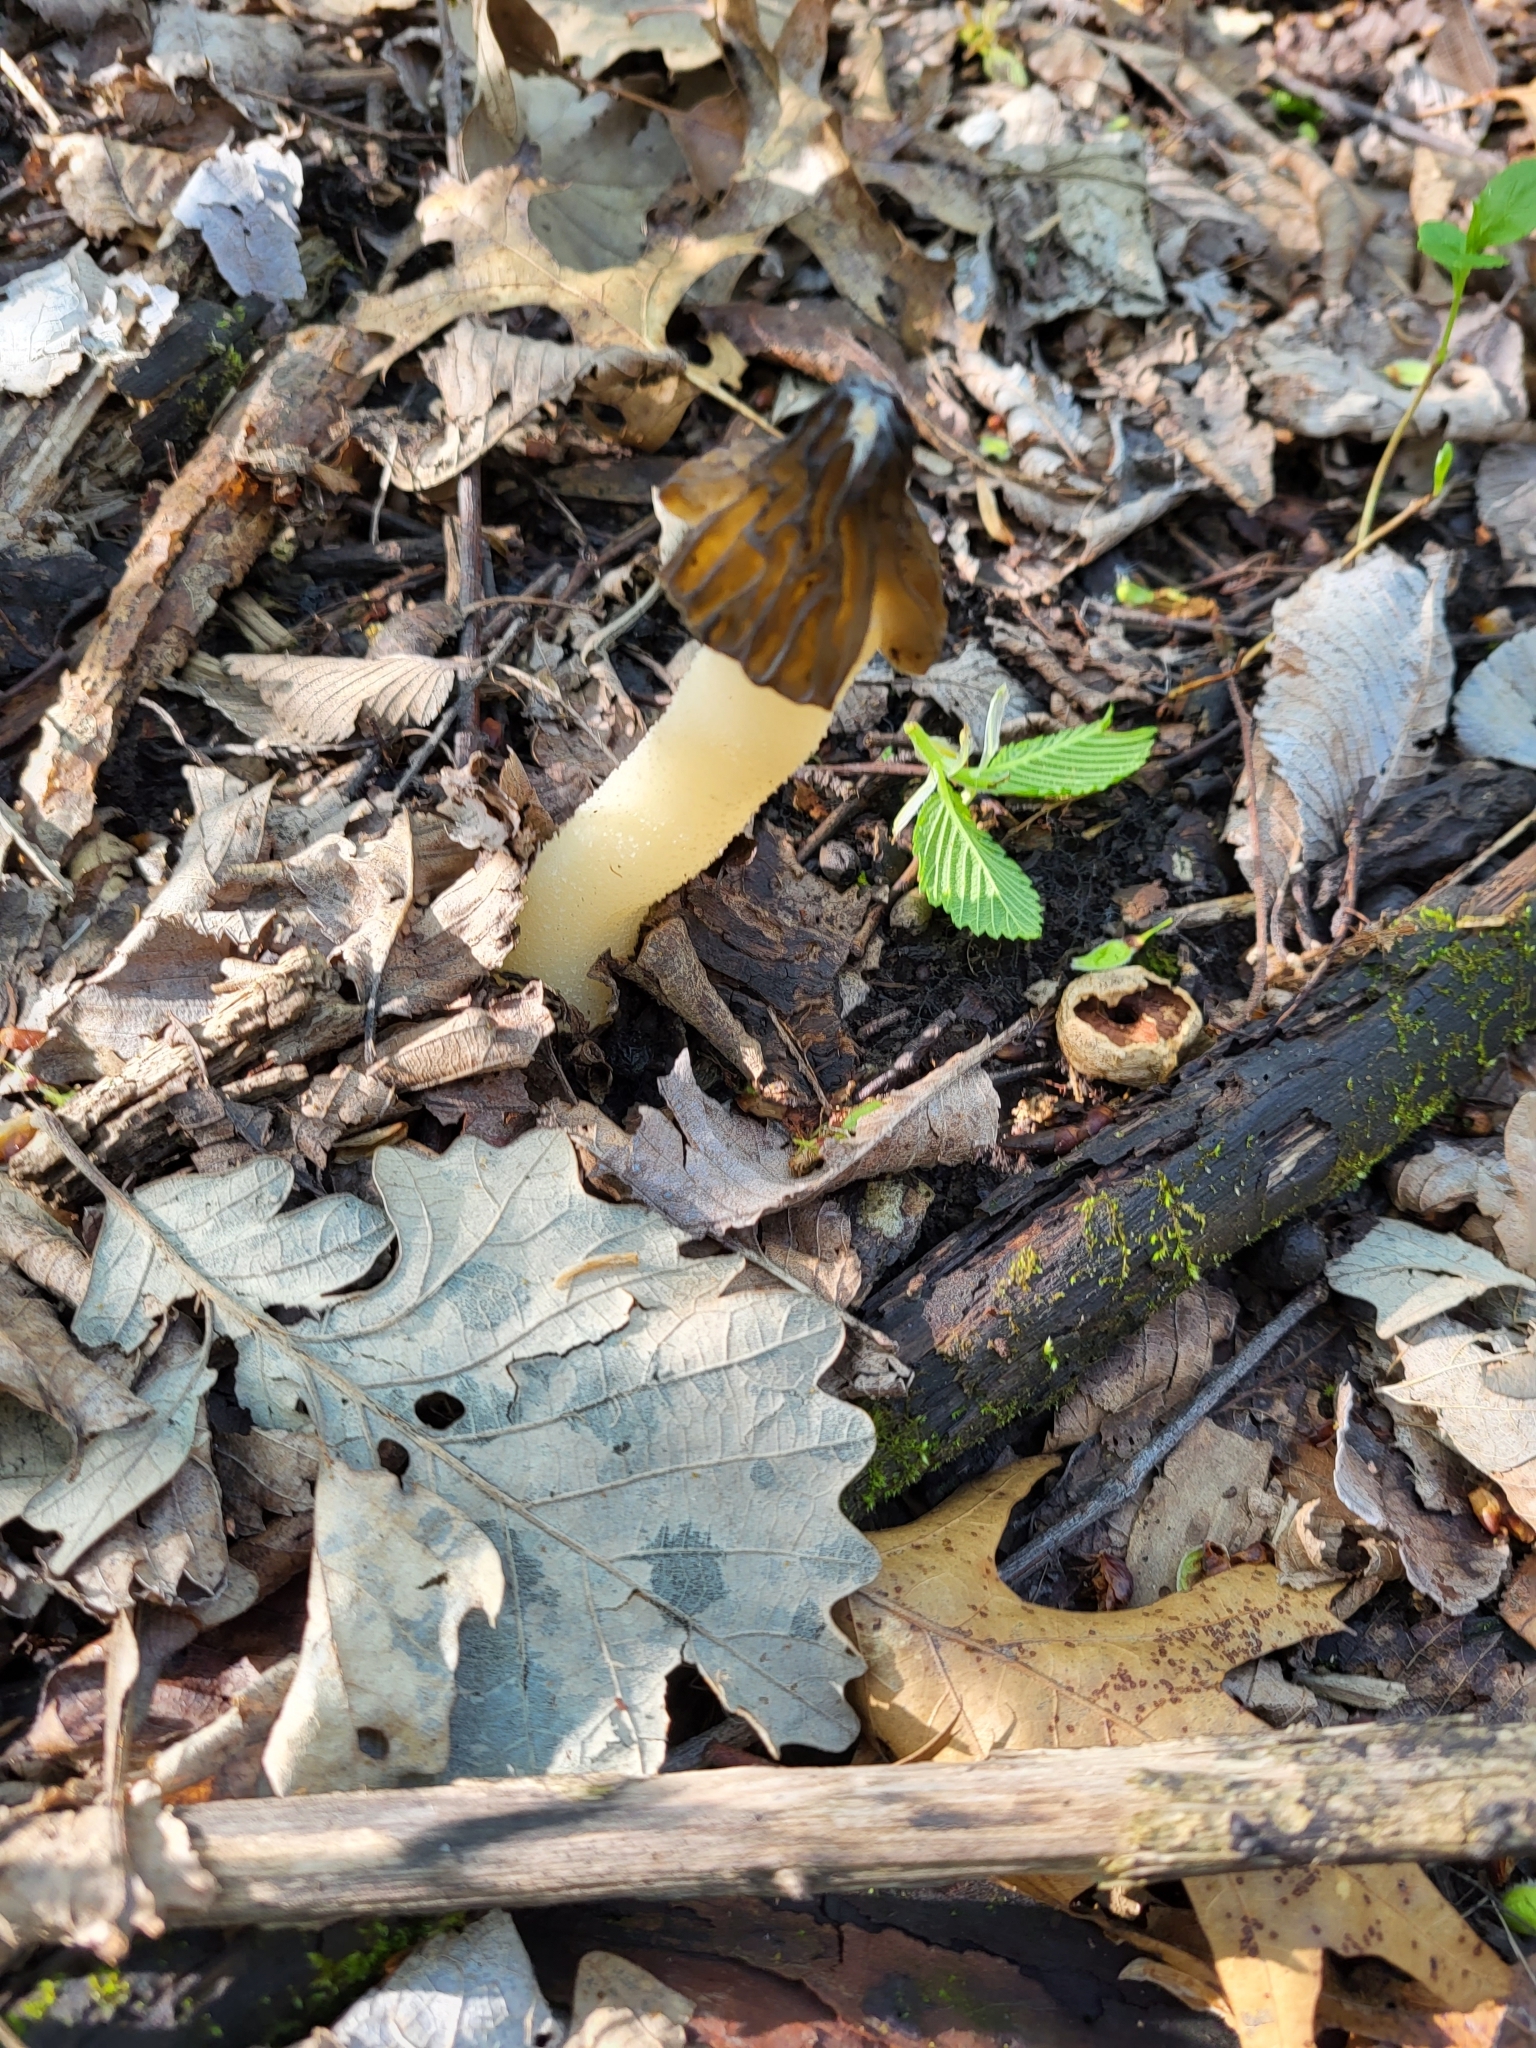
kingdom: Fungi
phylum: Ascomycota
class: Pezizomycetes
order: Pezizales
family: Morchellaceae
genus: Morchella
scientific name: Morchella punctipes
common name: Half-free morel
